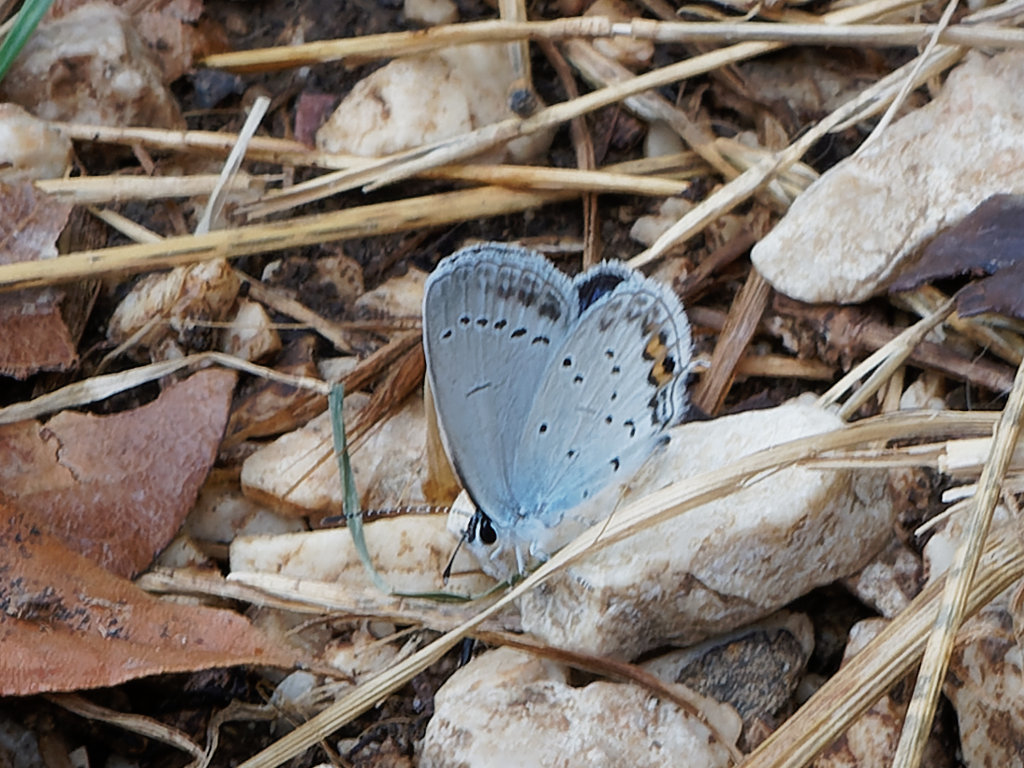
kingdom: Animalia
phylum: Arthropoda
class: Insecta
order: Lepidoptera
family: Lycaenidae
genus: Elkalyce
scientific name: Elkalyce argiades
